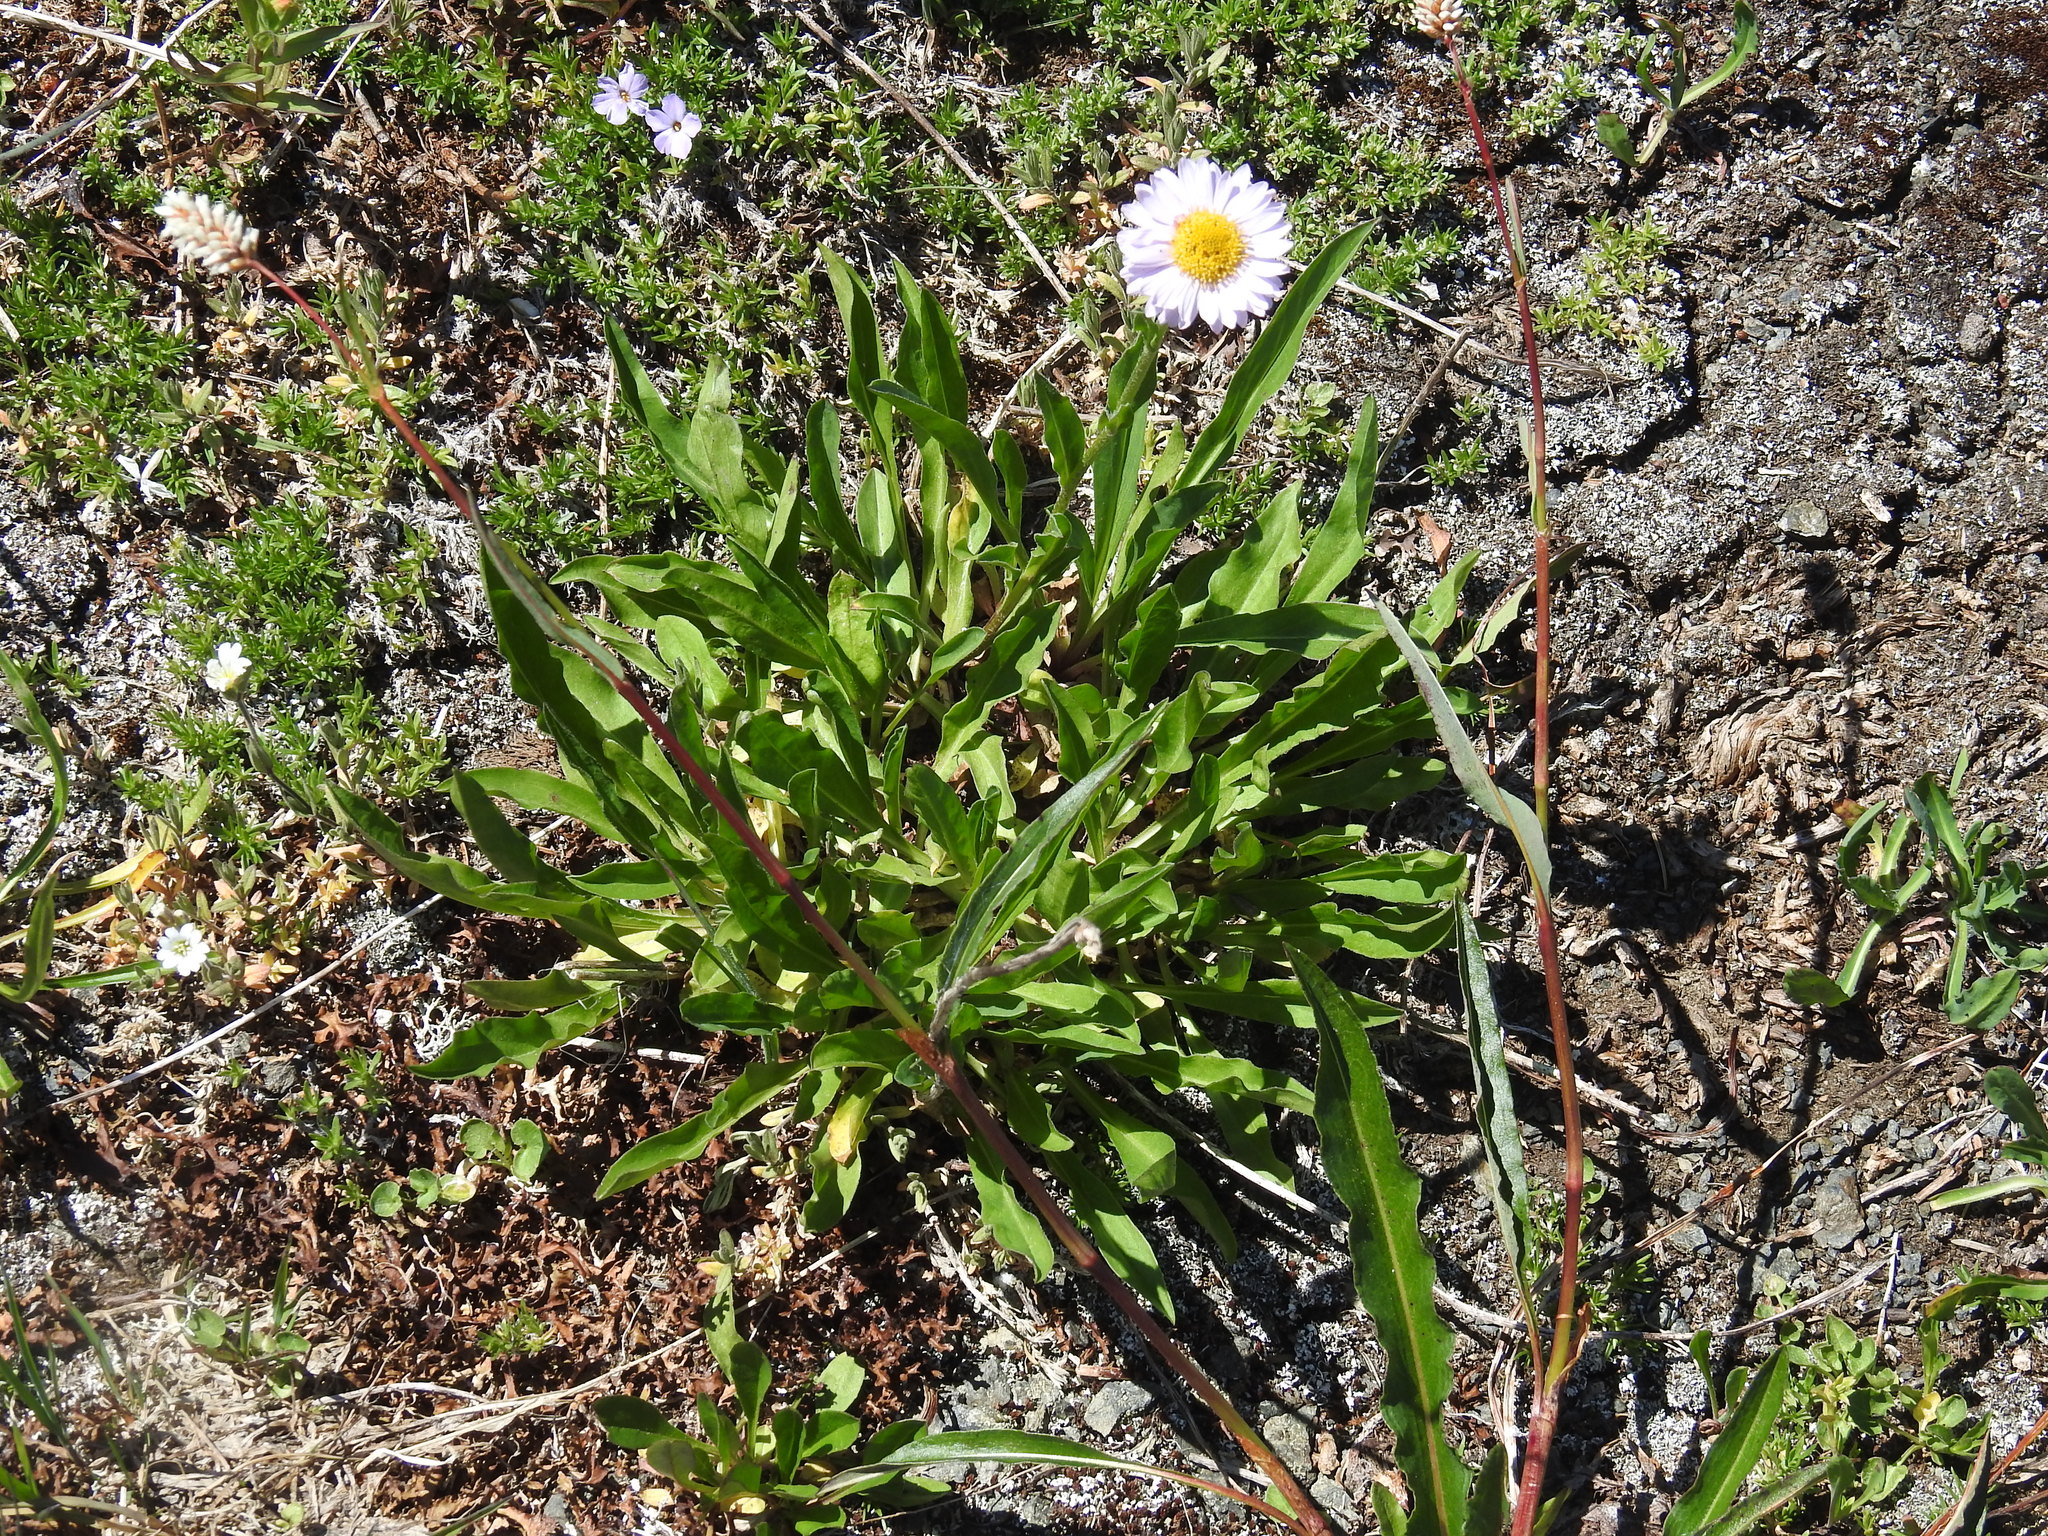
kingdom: Plantae
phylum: Tracheophyta
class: Magnoliopsida
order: Asterales
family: Asteraceae
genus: Erigeron
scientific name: Erigeron glacialis
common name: Subalpine fleabane
